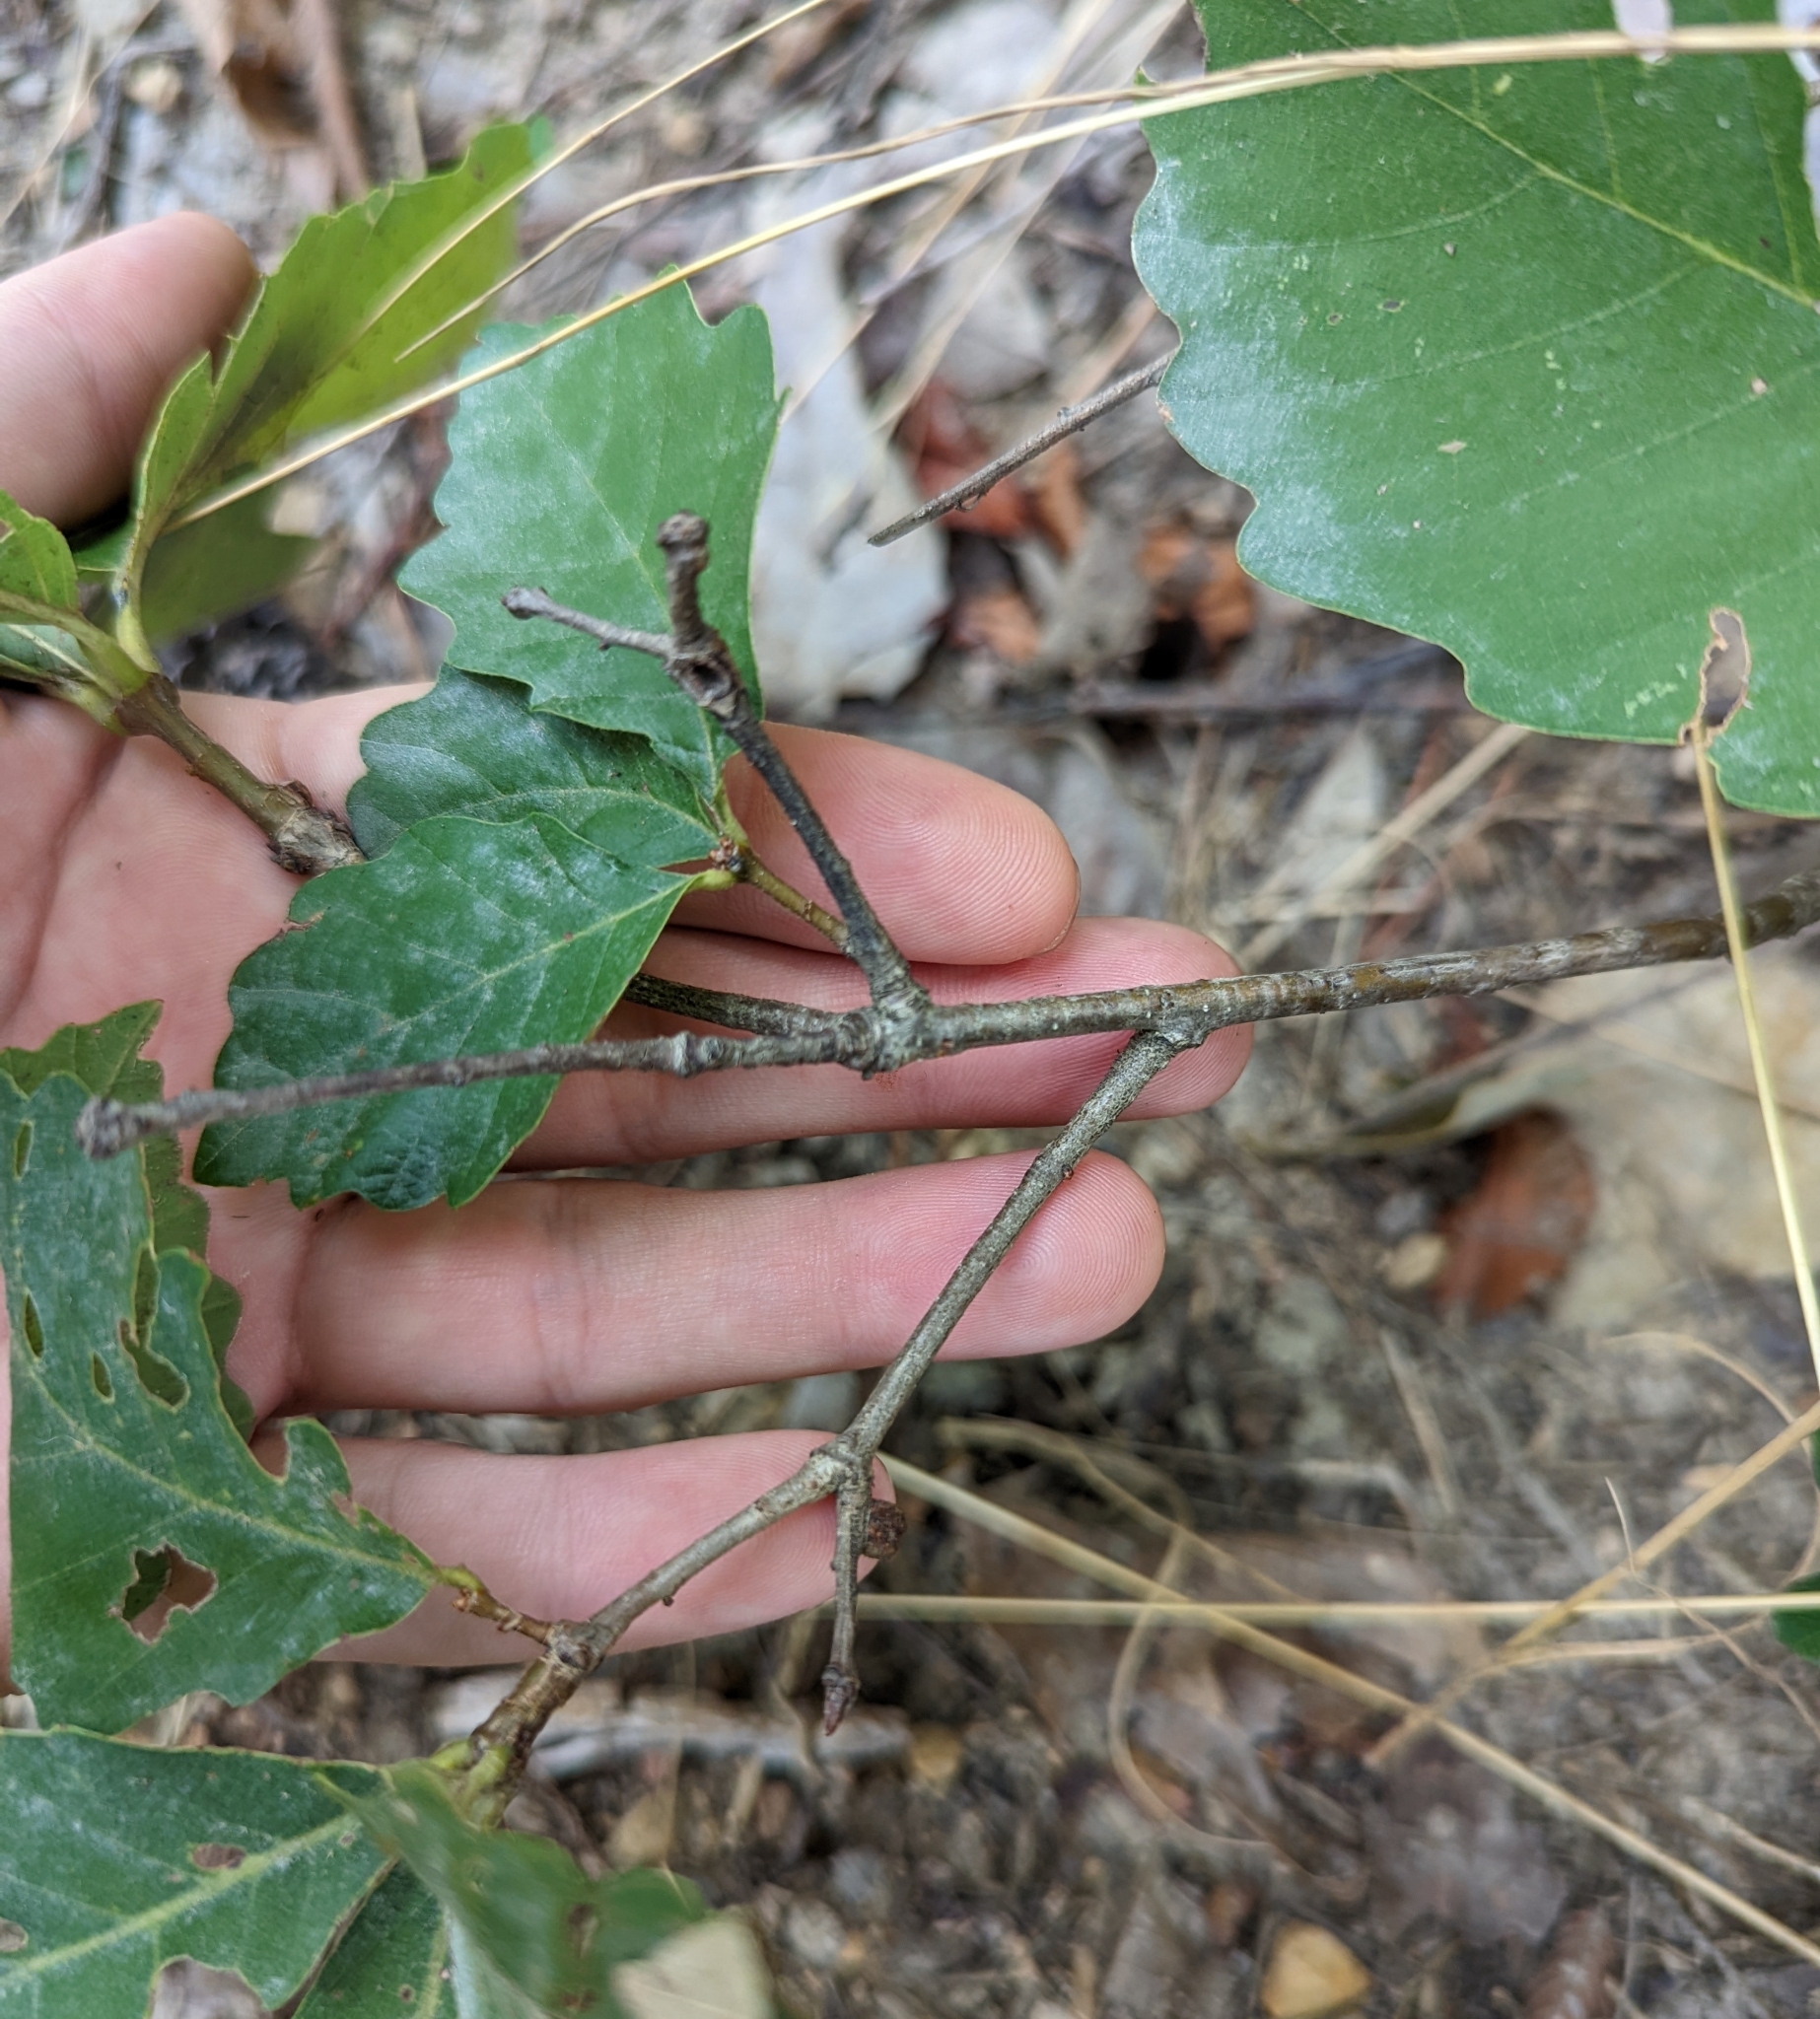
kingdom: Plantae
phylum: Tracheophyta
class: Magnoliopsida
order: Fagales
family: Fagaceae
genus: Quercus
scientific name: Quercus montana
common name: Chestnut oak
